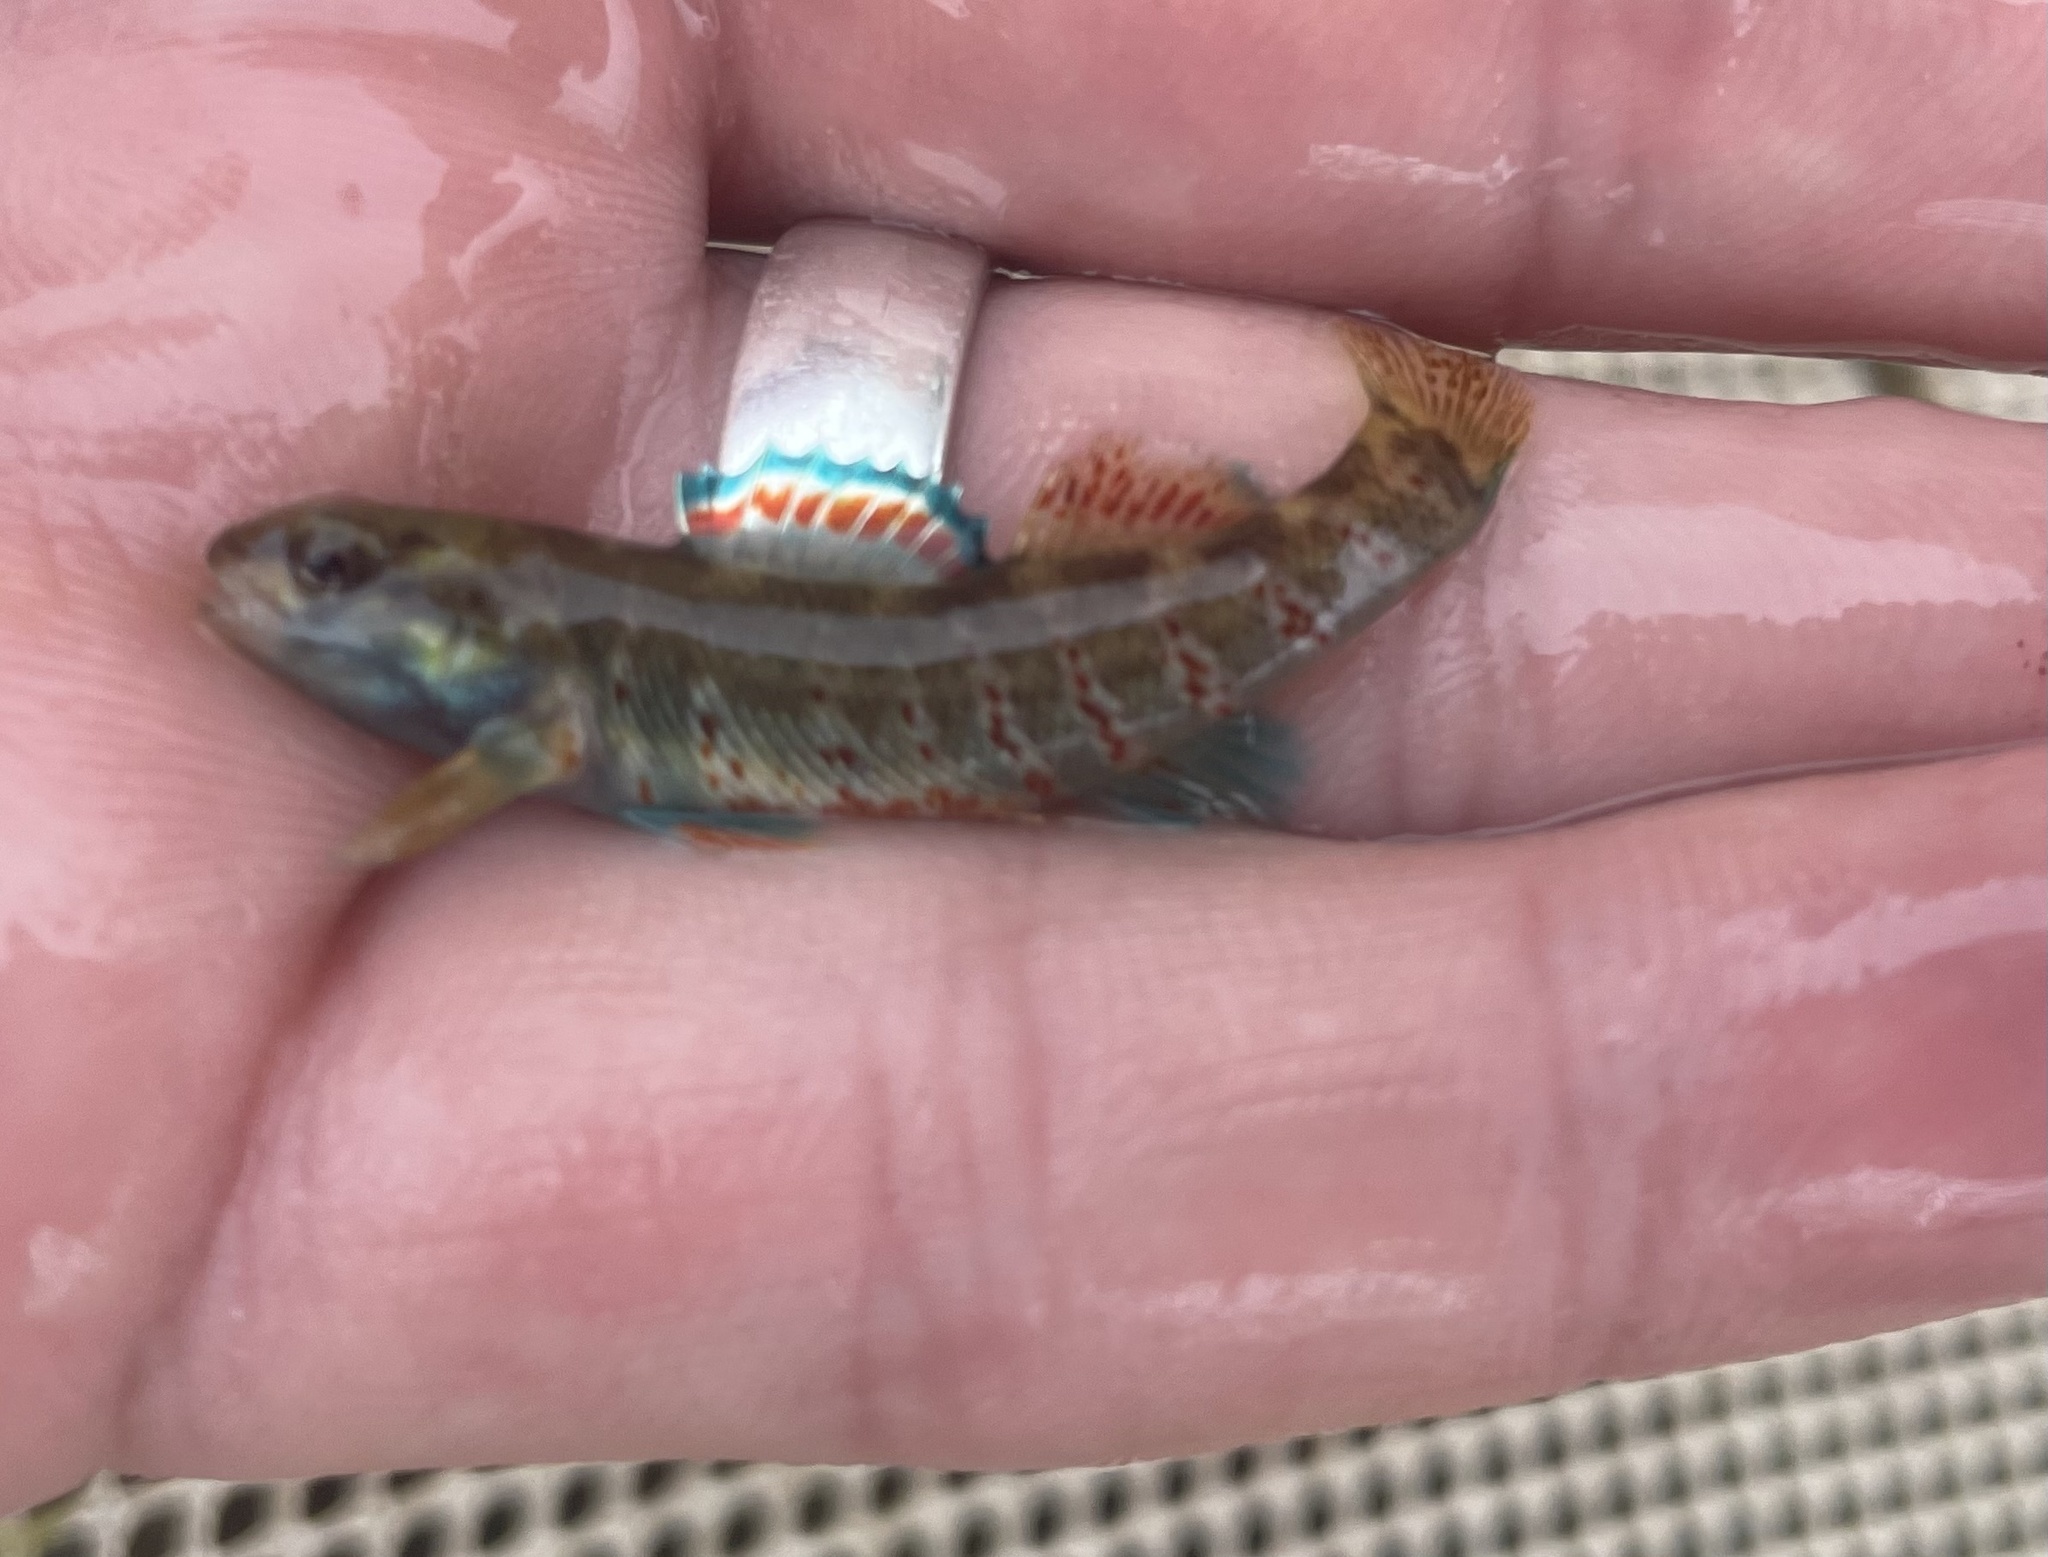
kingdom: Animalia
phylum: Chordata
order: Perciformes
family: Percidae
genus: Etheostoma
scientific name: Etheostoma lepidum
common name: Greenthroat darter
